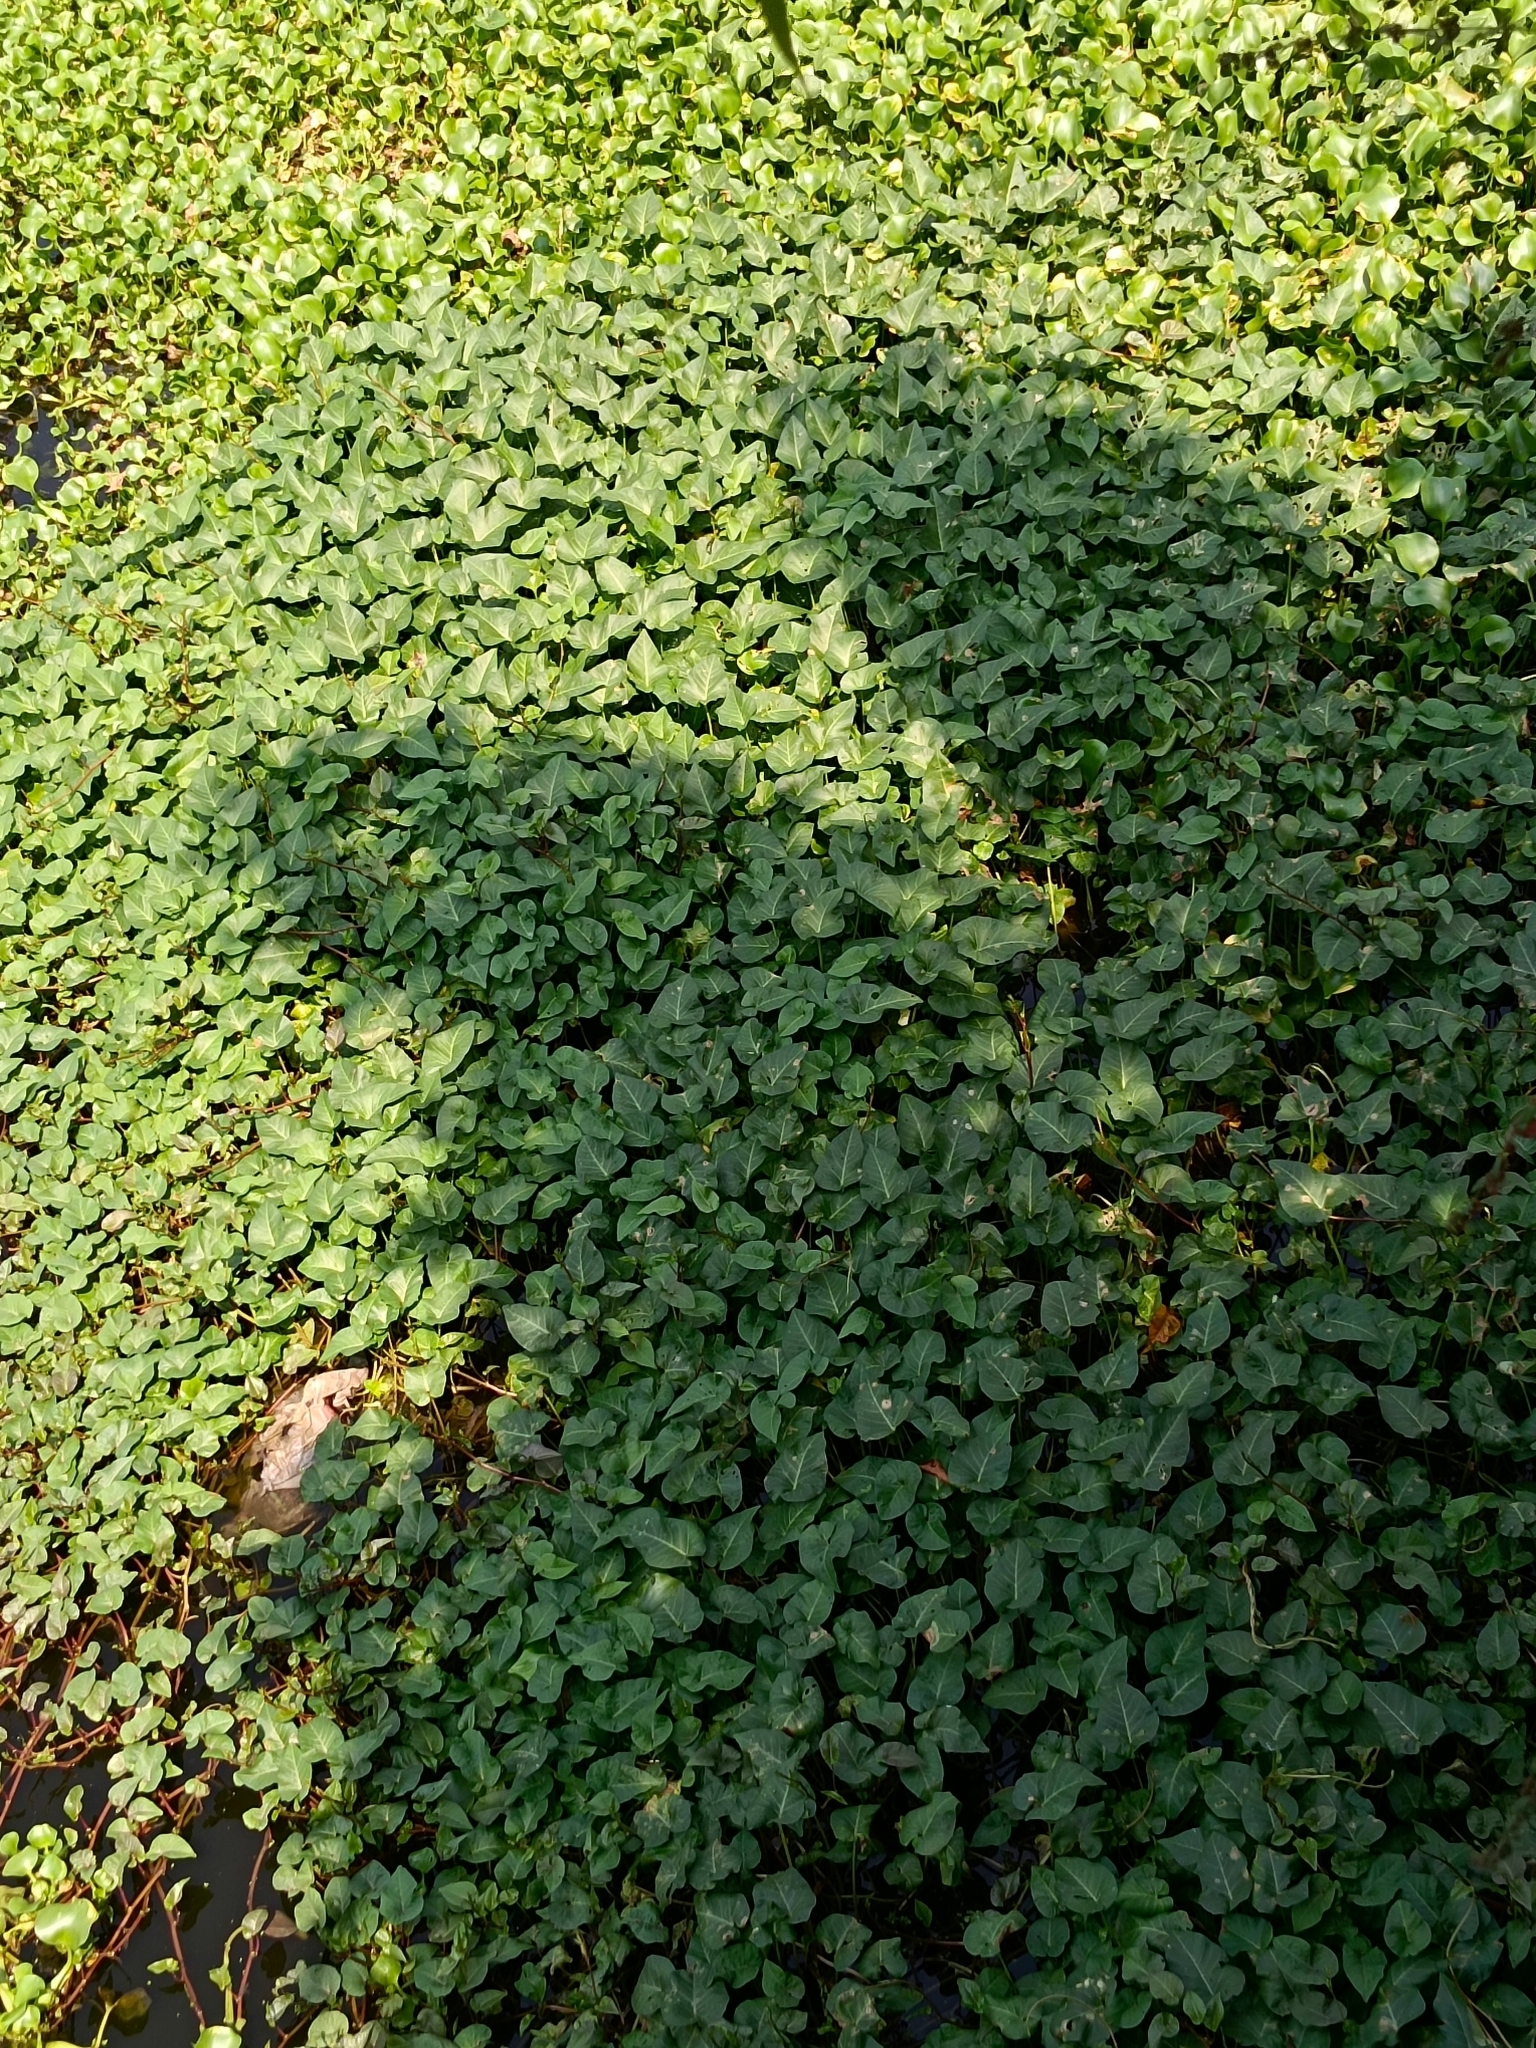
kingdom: Plantae
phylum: Tracheophyta
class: Magnoliopsida
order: Solanales
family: Convolvulaceae
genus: Ipomoea
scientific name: Ipomoea aquatica
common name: Swamp morning-glory
